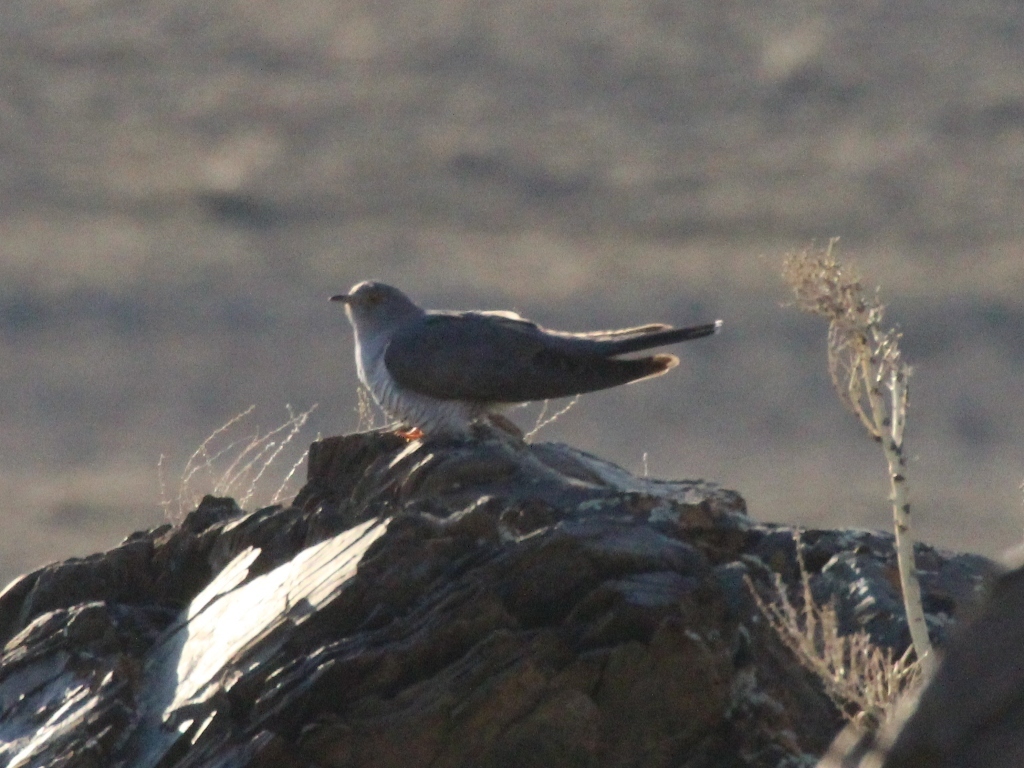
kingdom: Animalia
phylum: Chordata
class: Aves
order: Cuculiformes
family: Cuculidae
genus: Cuculus
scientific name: Cuculus canorus
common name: Common cuckoo
